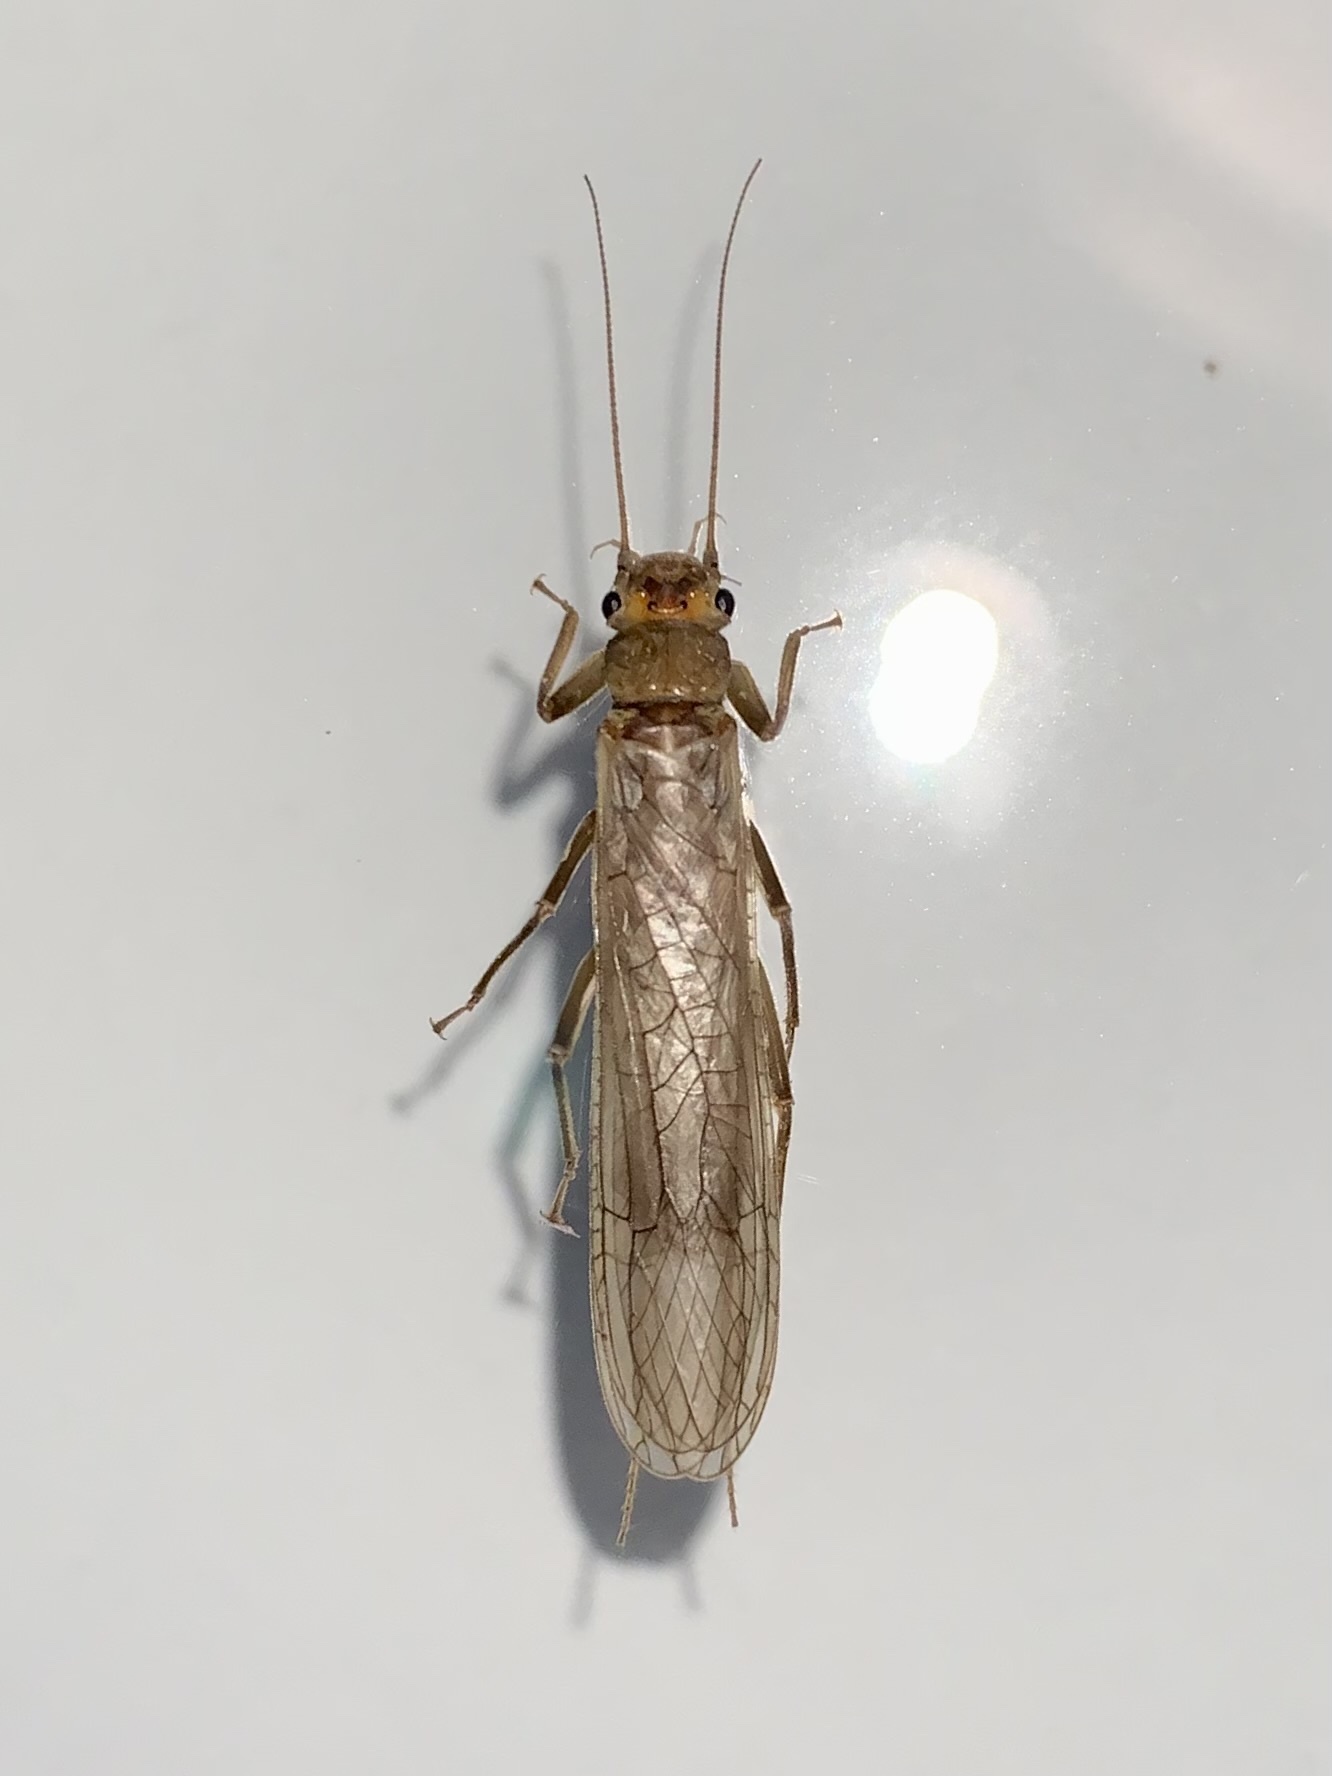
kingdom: Animalia
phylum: Arthropoda
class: Insecta
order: Plecoptera
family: Perlodidae
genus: Isoperla
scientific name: Isoperla bithynica
